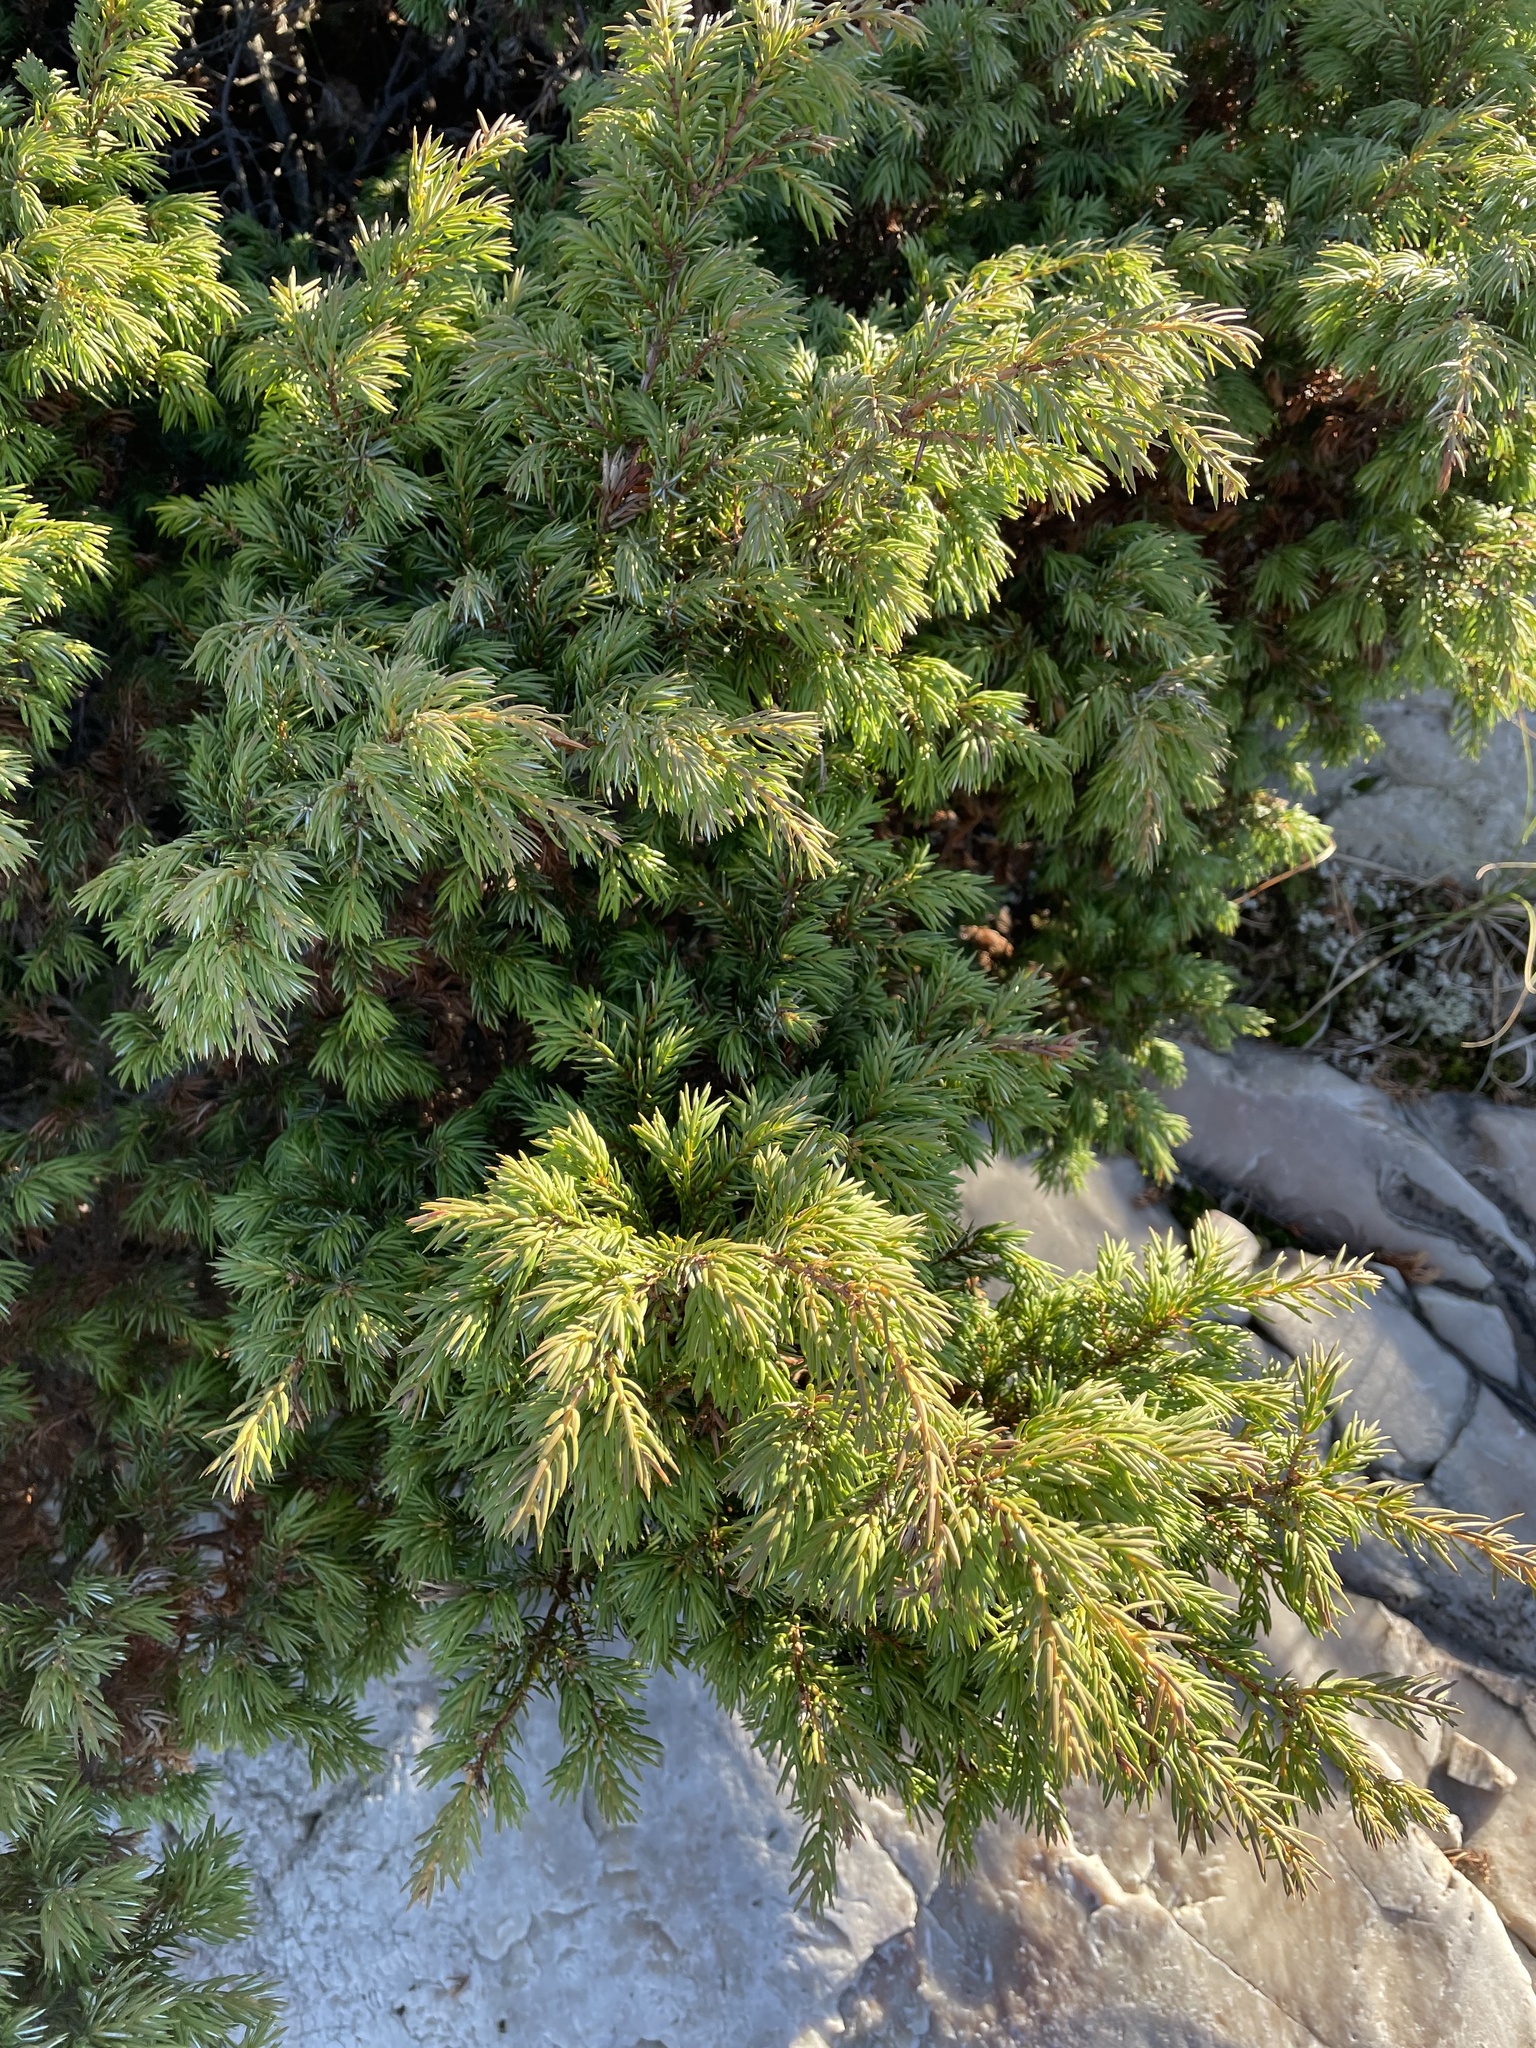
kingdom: Plantae
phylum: Tracheophyta
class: Pinopsida
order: Pinales
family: Cupressaceae
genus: Juniperus
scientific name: Juniperus communis
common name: Common juniper
